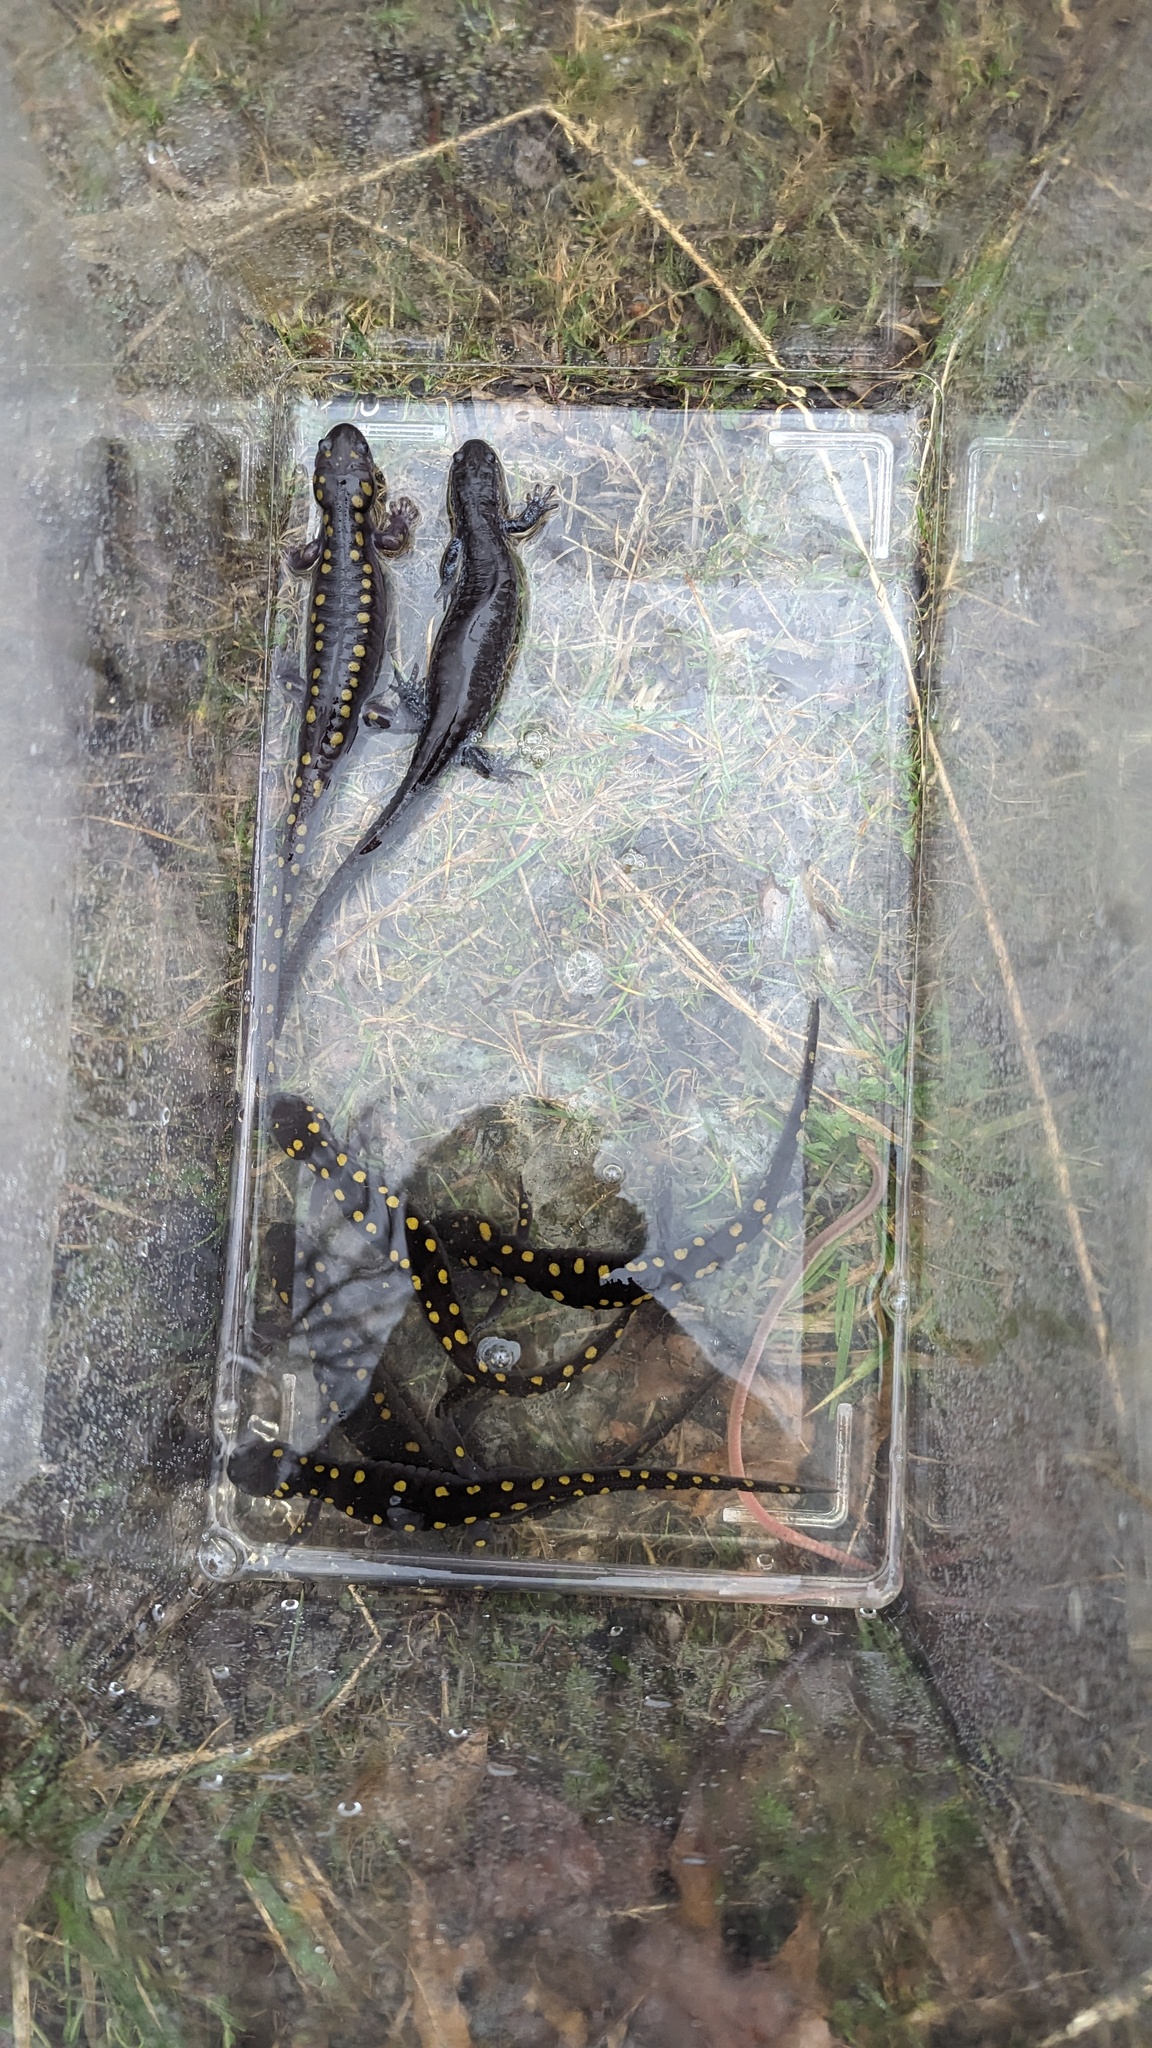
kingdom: Animalia
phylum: Chordata
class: Amphibia
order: Caudata
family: Ambystomatidae
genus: Ambystoma
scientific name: Ambystoma maculatum
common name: Spotted salamander
